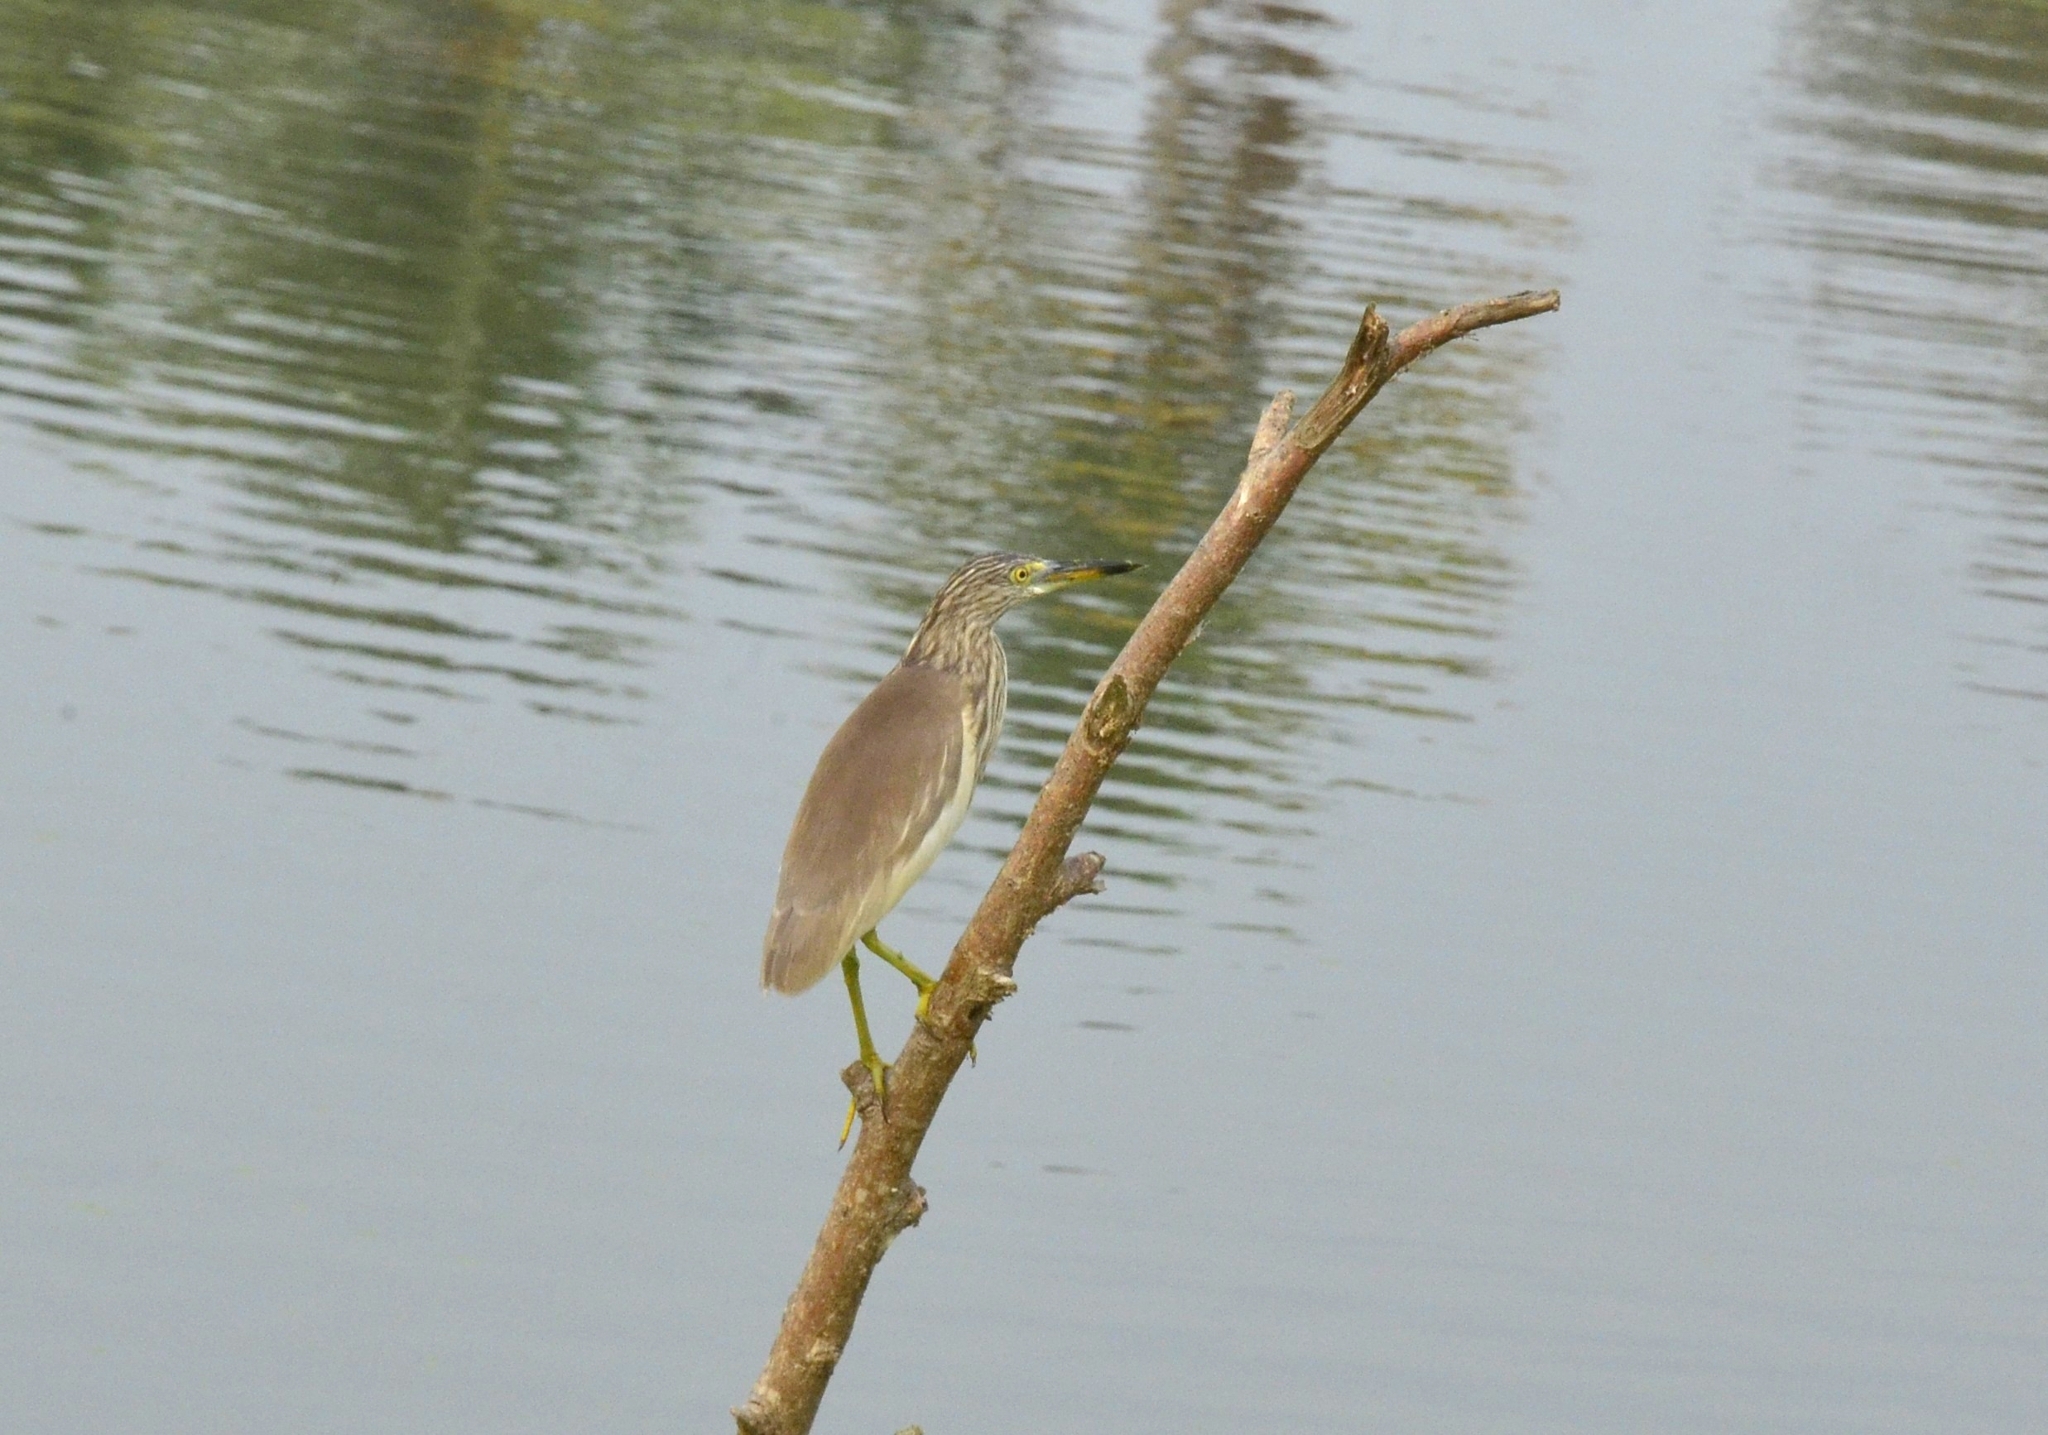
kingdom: Animalia
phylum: Chordata
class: Aves
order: Pelecaniformes
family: Ardeidae
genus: Ardeola
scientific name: Ardeola grayii
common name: Indian pond heron
